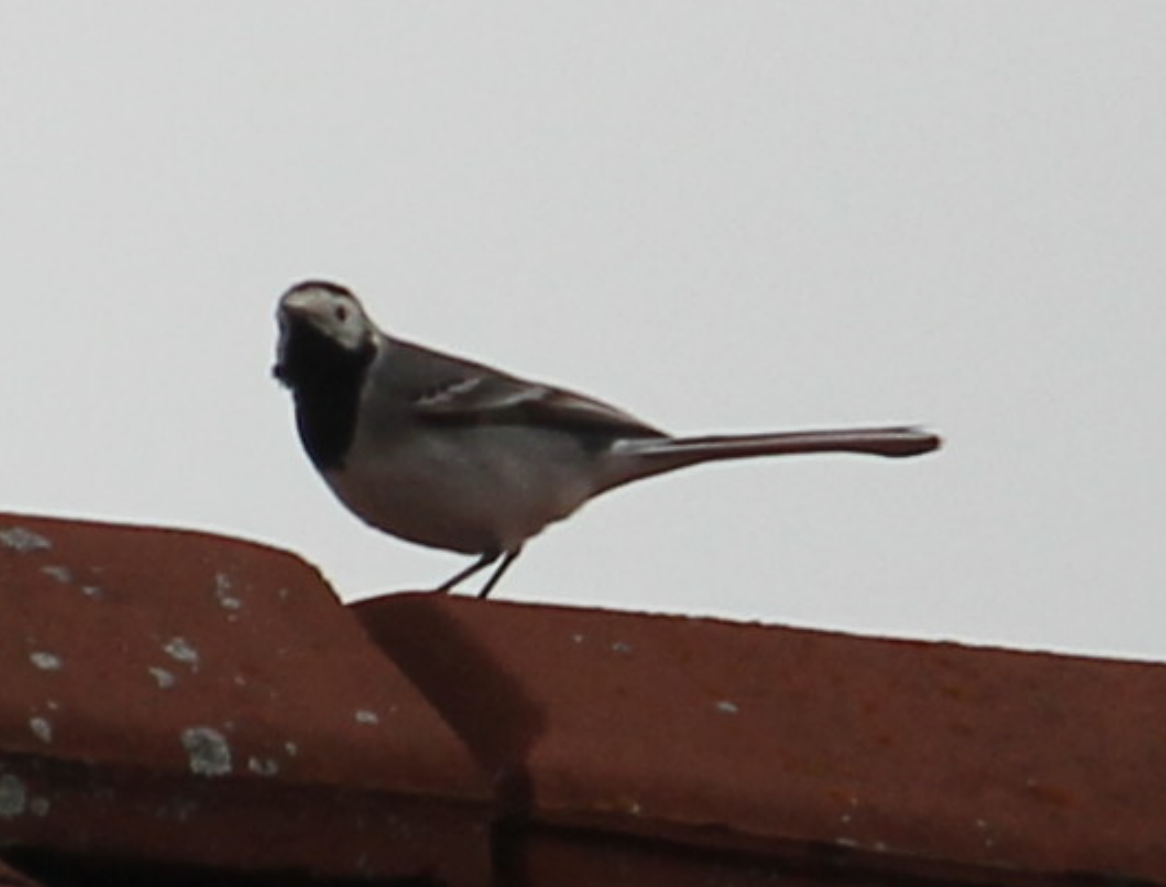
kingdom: Animalia
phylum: Chordata
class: Aves
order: Passeriformes
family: Motacillidae
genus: Motacilla
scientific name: Motacilla alba
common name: White wagtail
